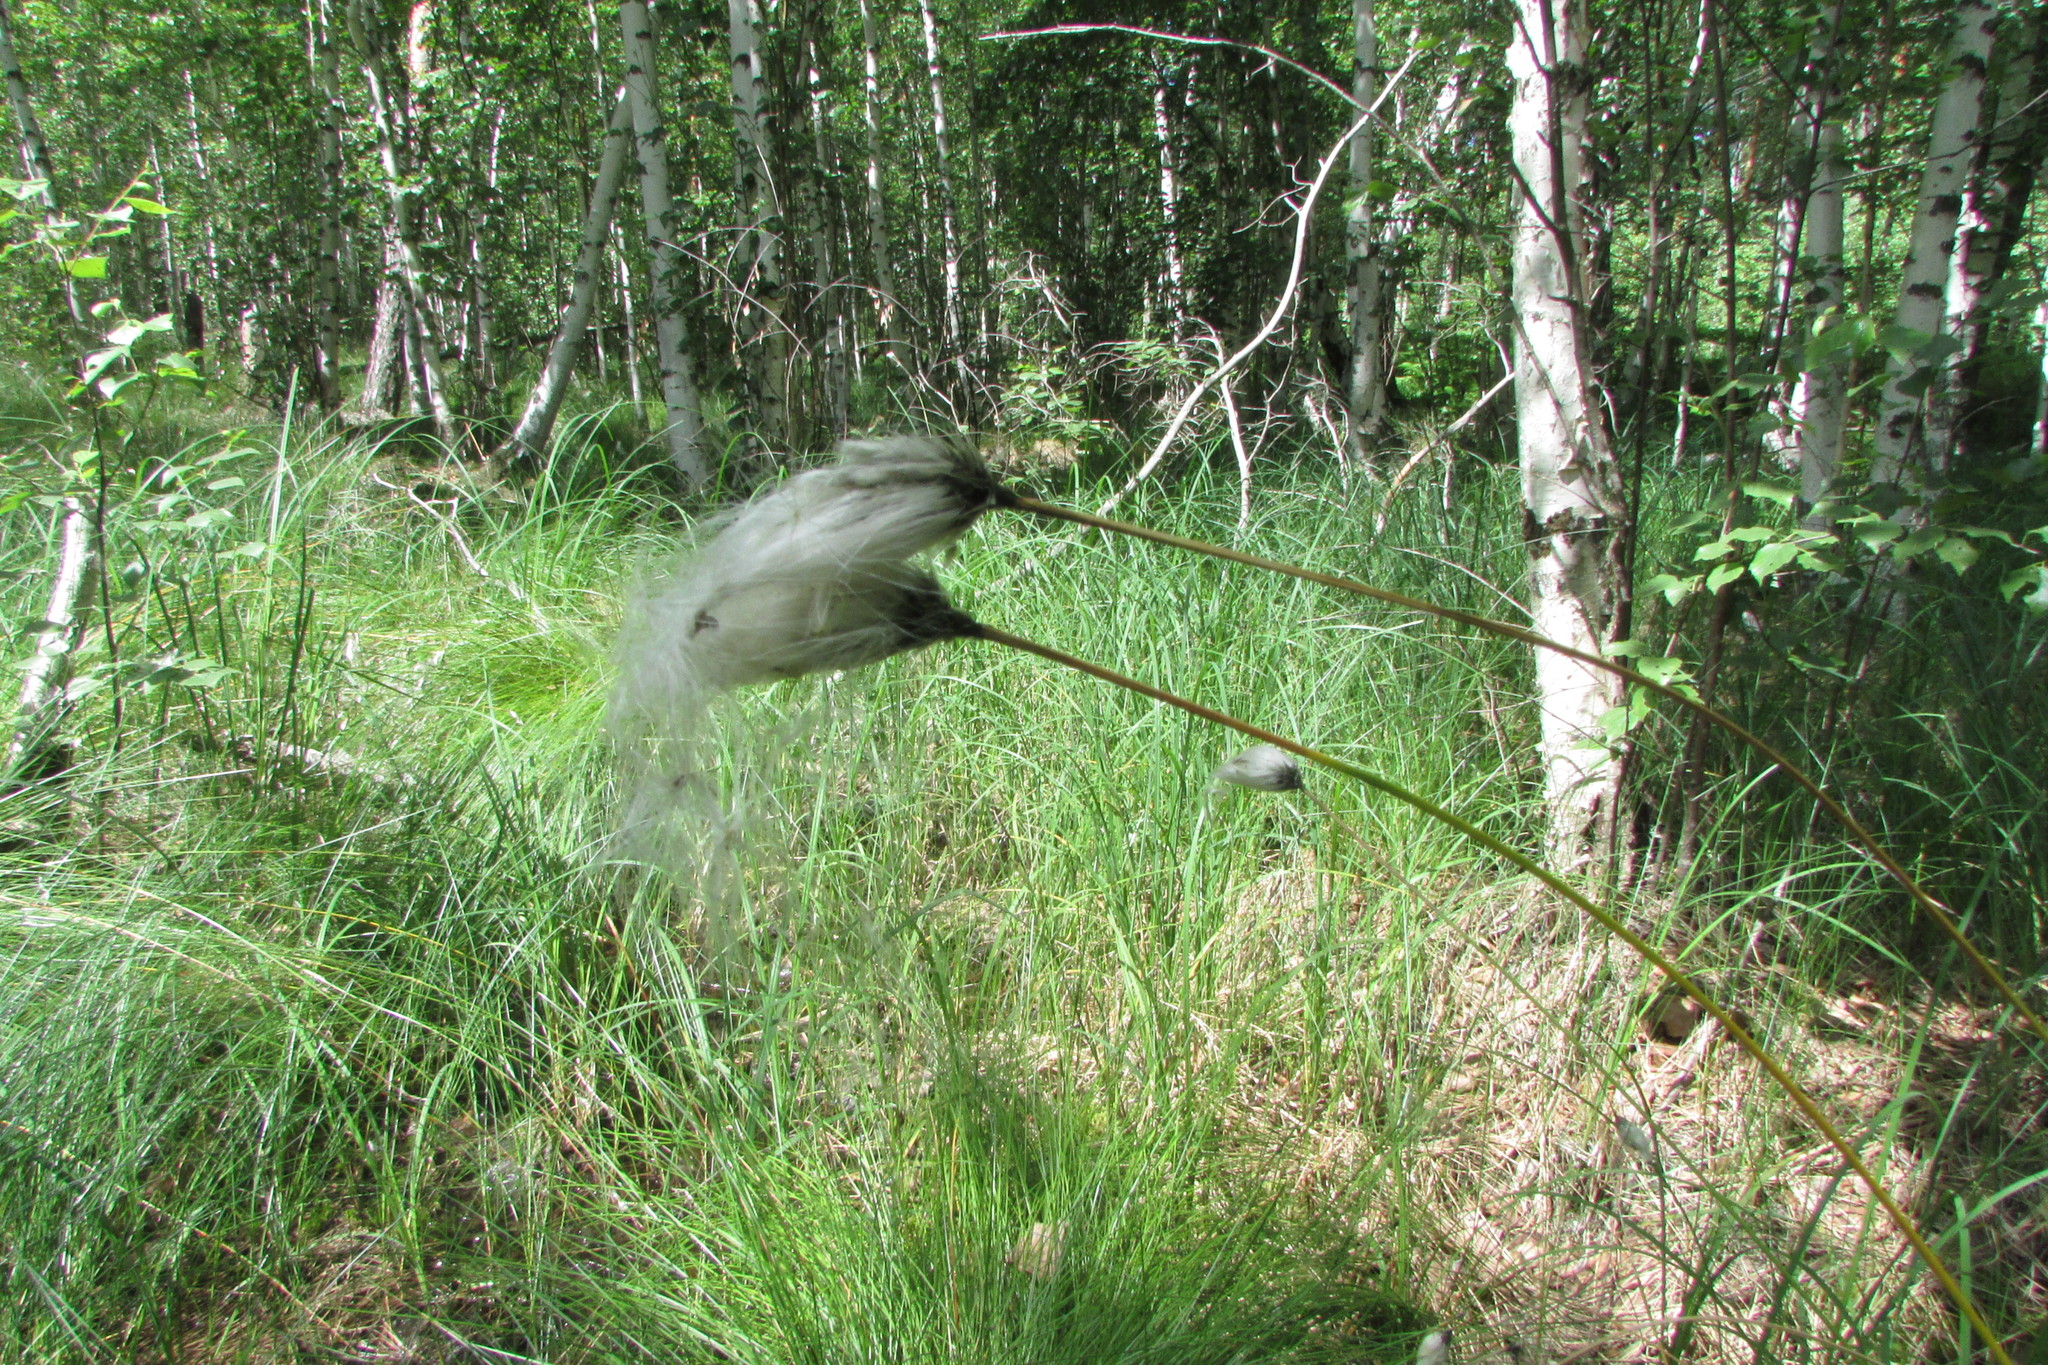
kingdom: Plantae
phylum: Tracheophyta
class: Liliopsida
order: Poales
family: Cyperaceae
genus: Eriophorum
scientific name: Eriophorum vaginatum
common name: Hare's-tail cottongrass
